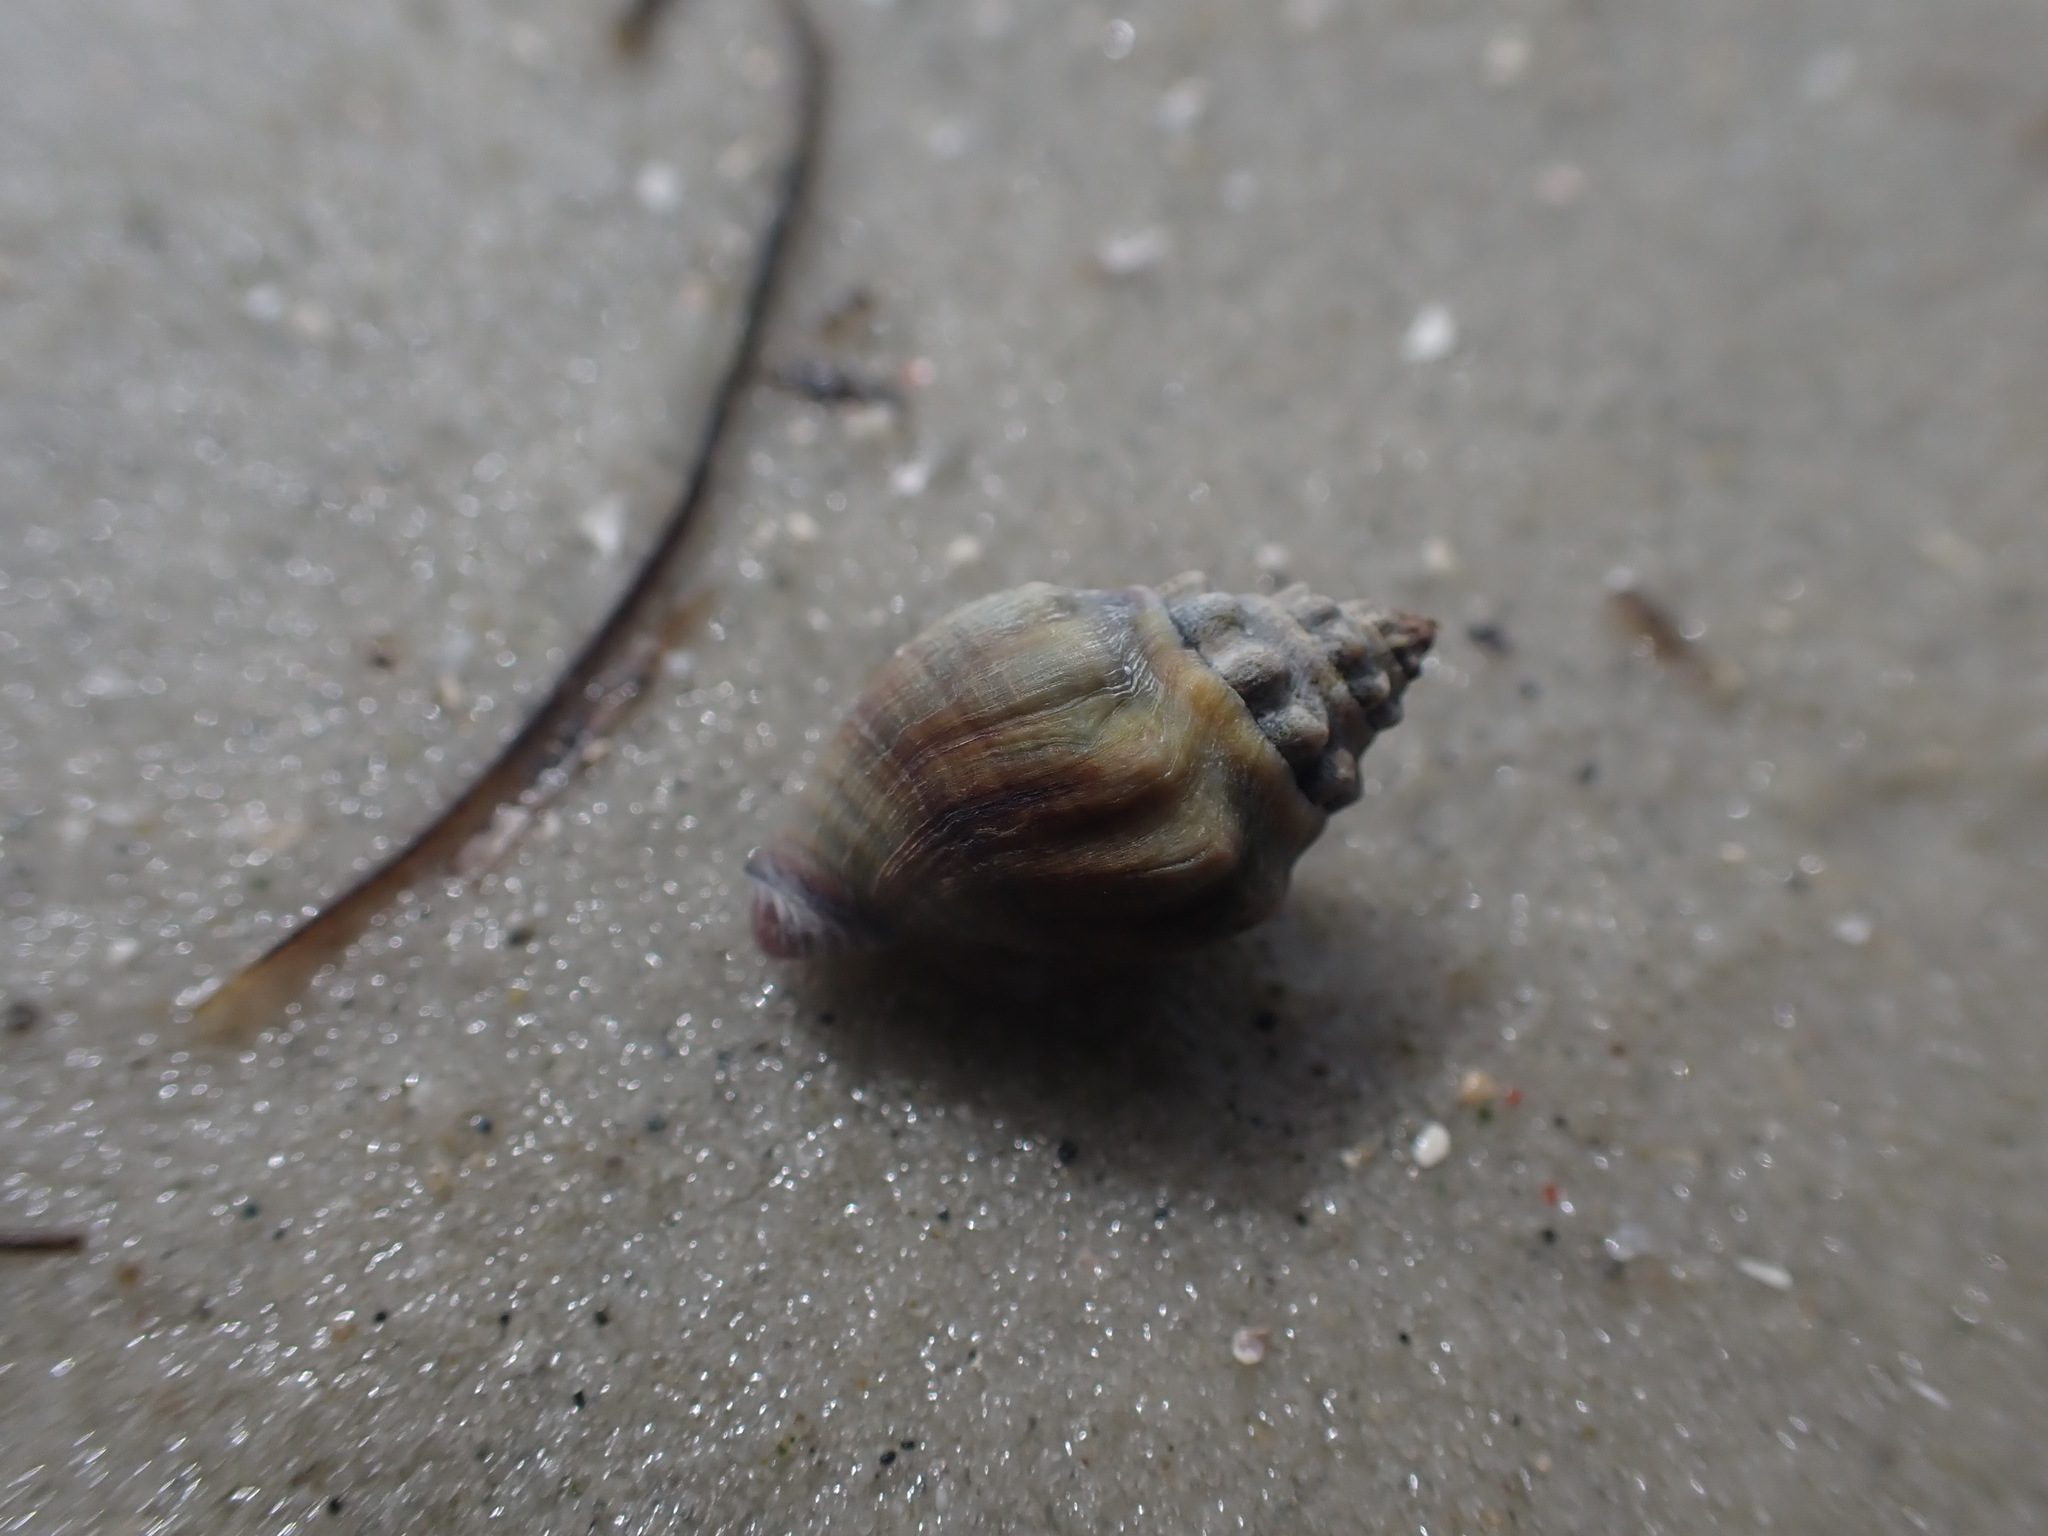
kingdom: Animalia
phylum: Mollusca
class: Gastropoda
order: Neogastropoda
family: Cominellidae
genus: Cominella
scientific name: Cominella glandiformis
